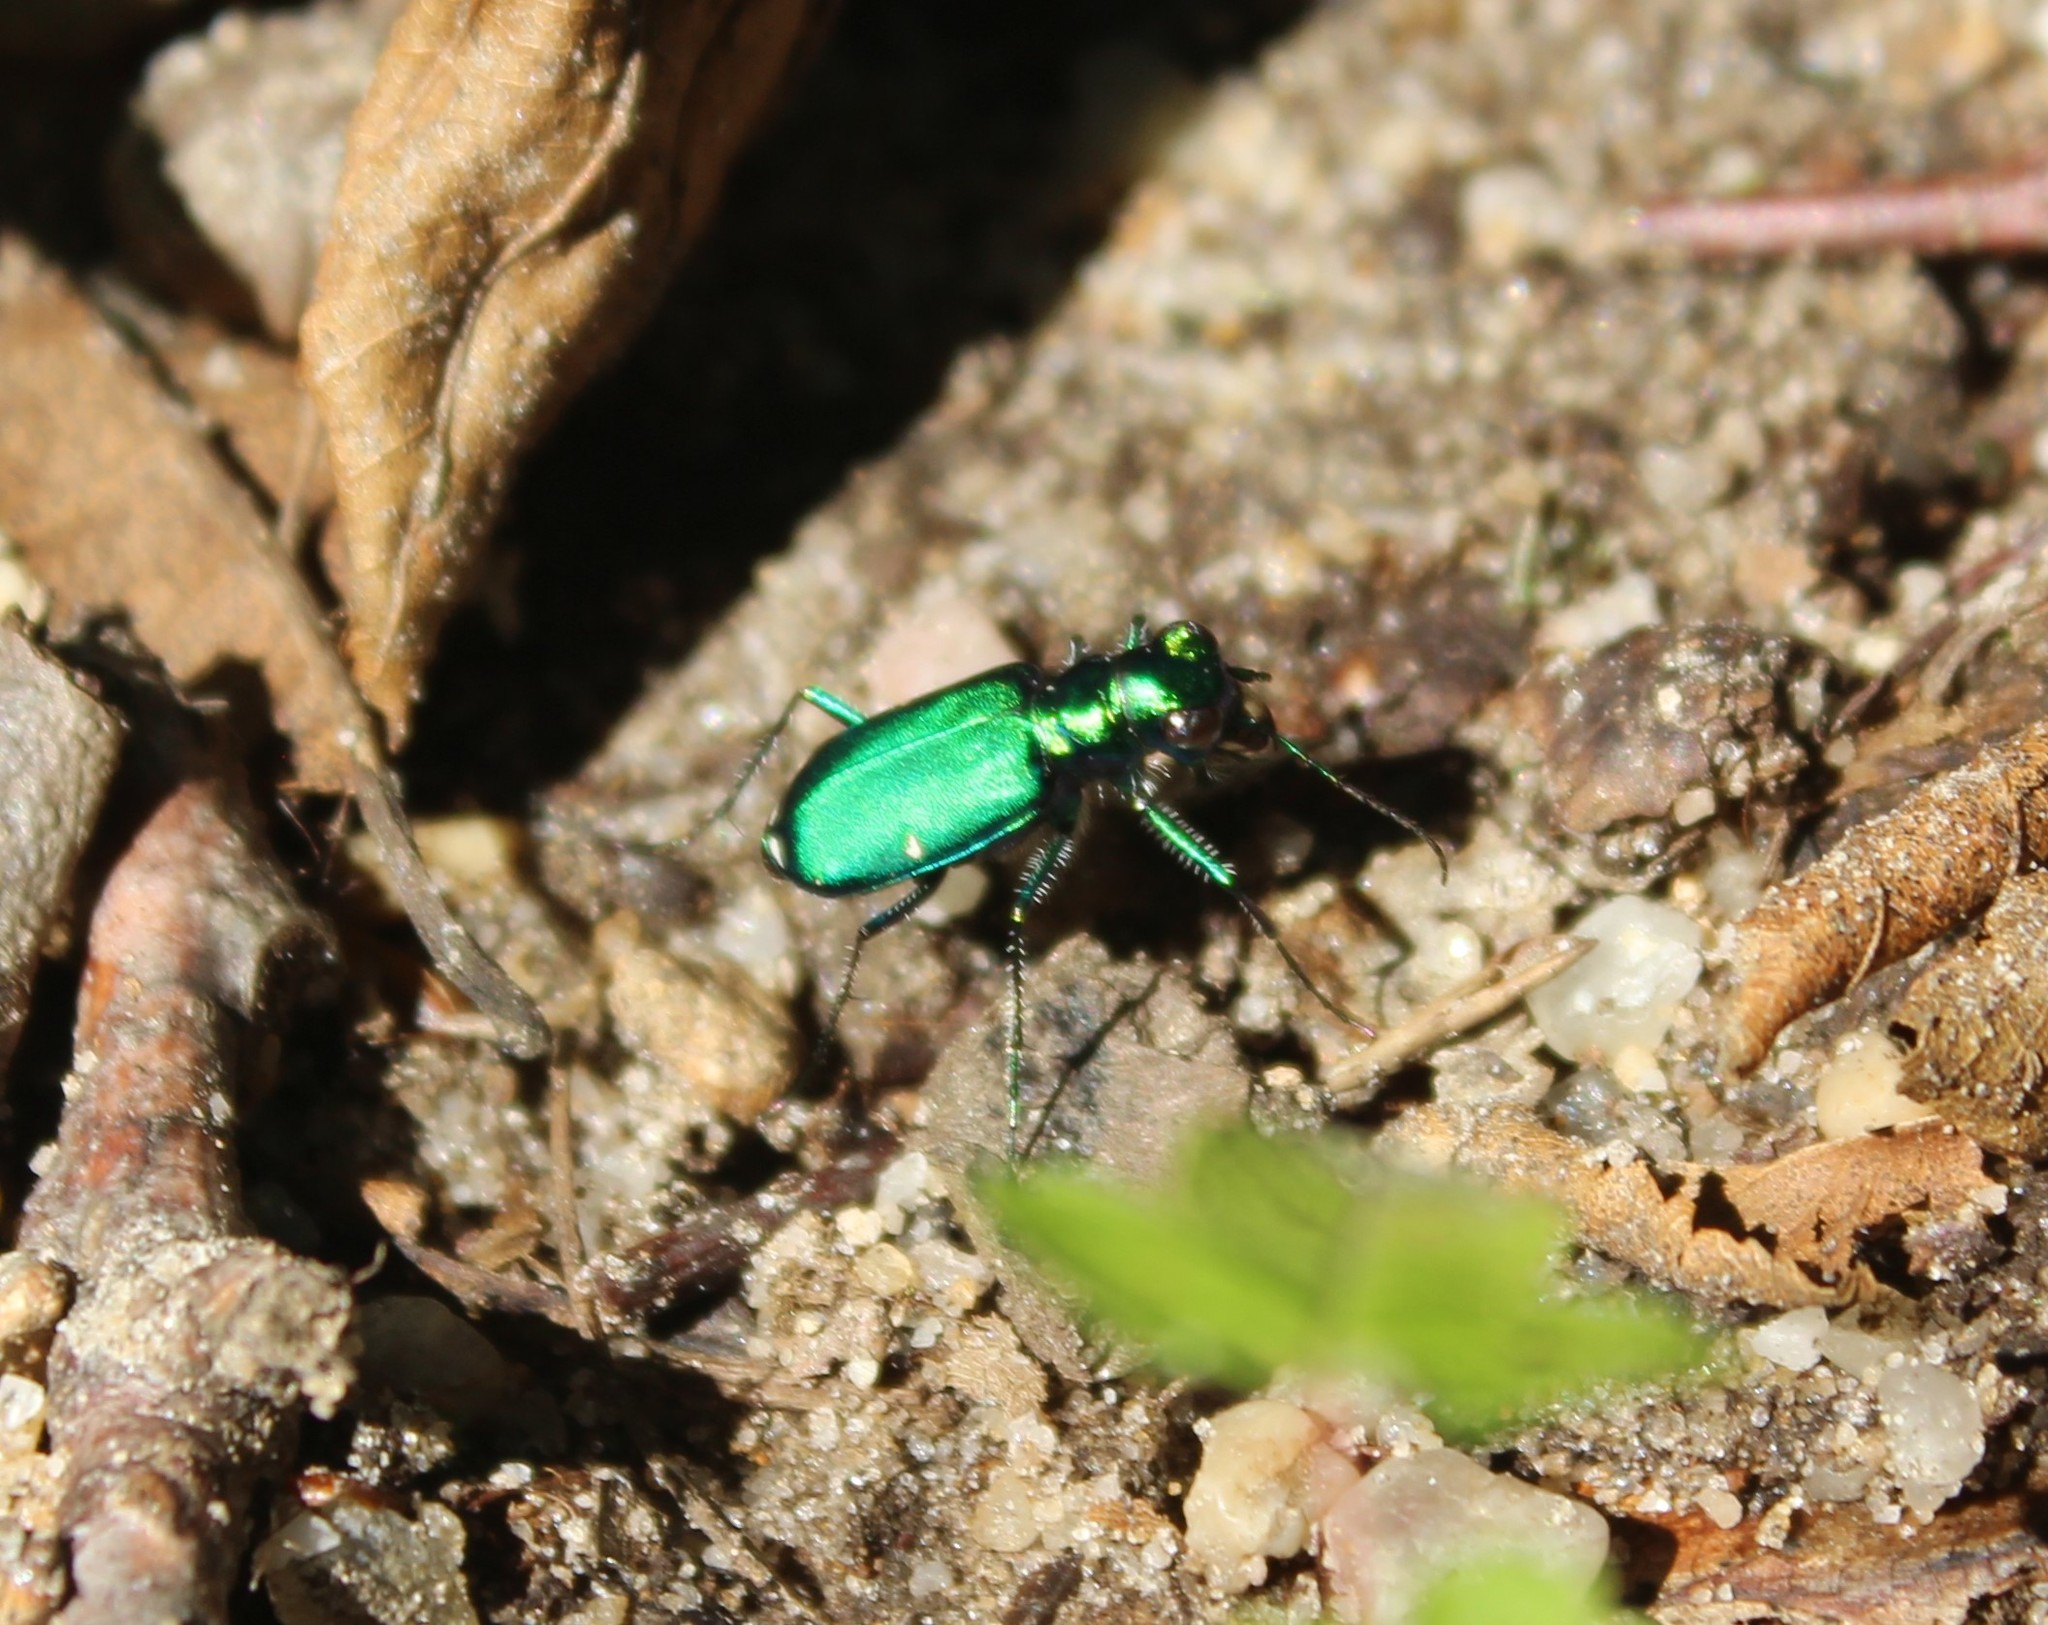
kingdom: Animalia
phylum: Arthropoda
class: Insecta
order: Coleoptera
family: Carabidae
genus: Cicindela
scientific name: Cicindela sexguttata
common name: Six-spotted tiger beetle
